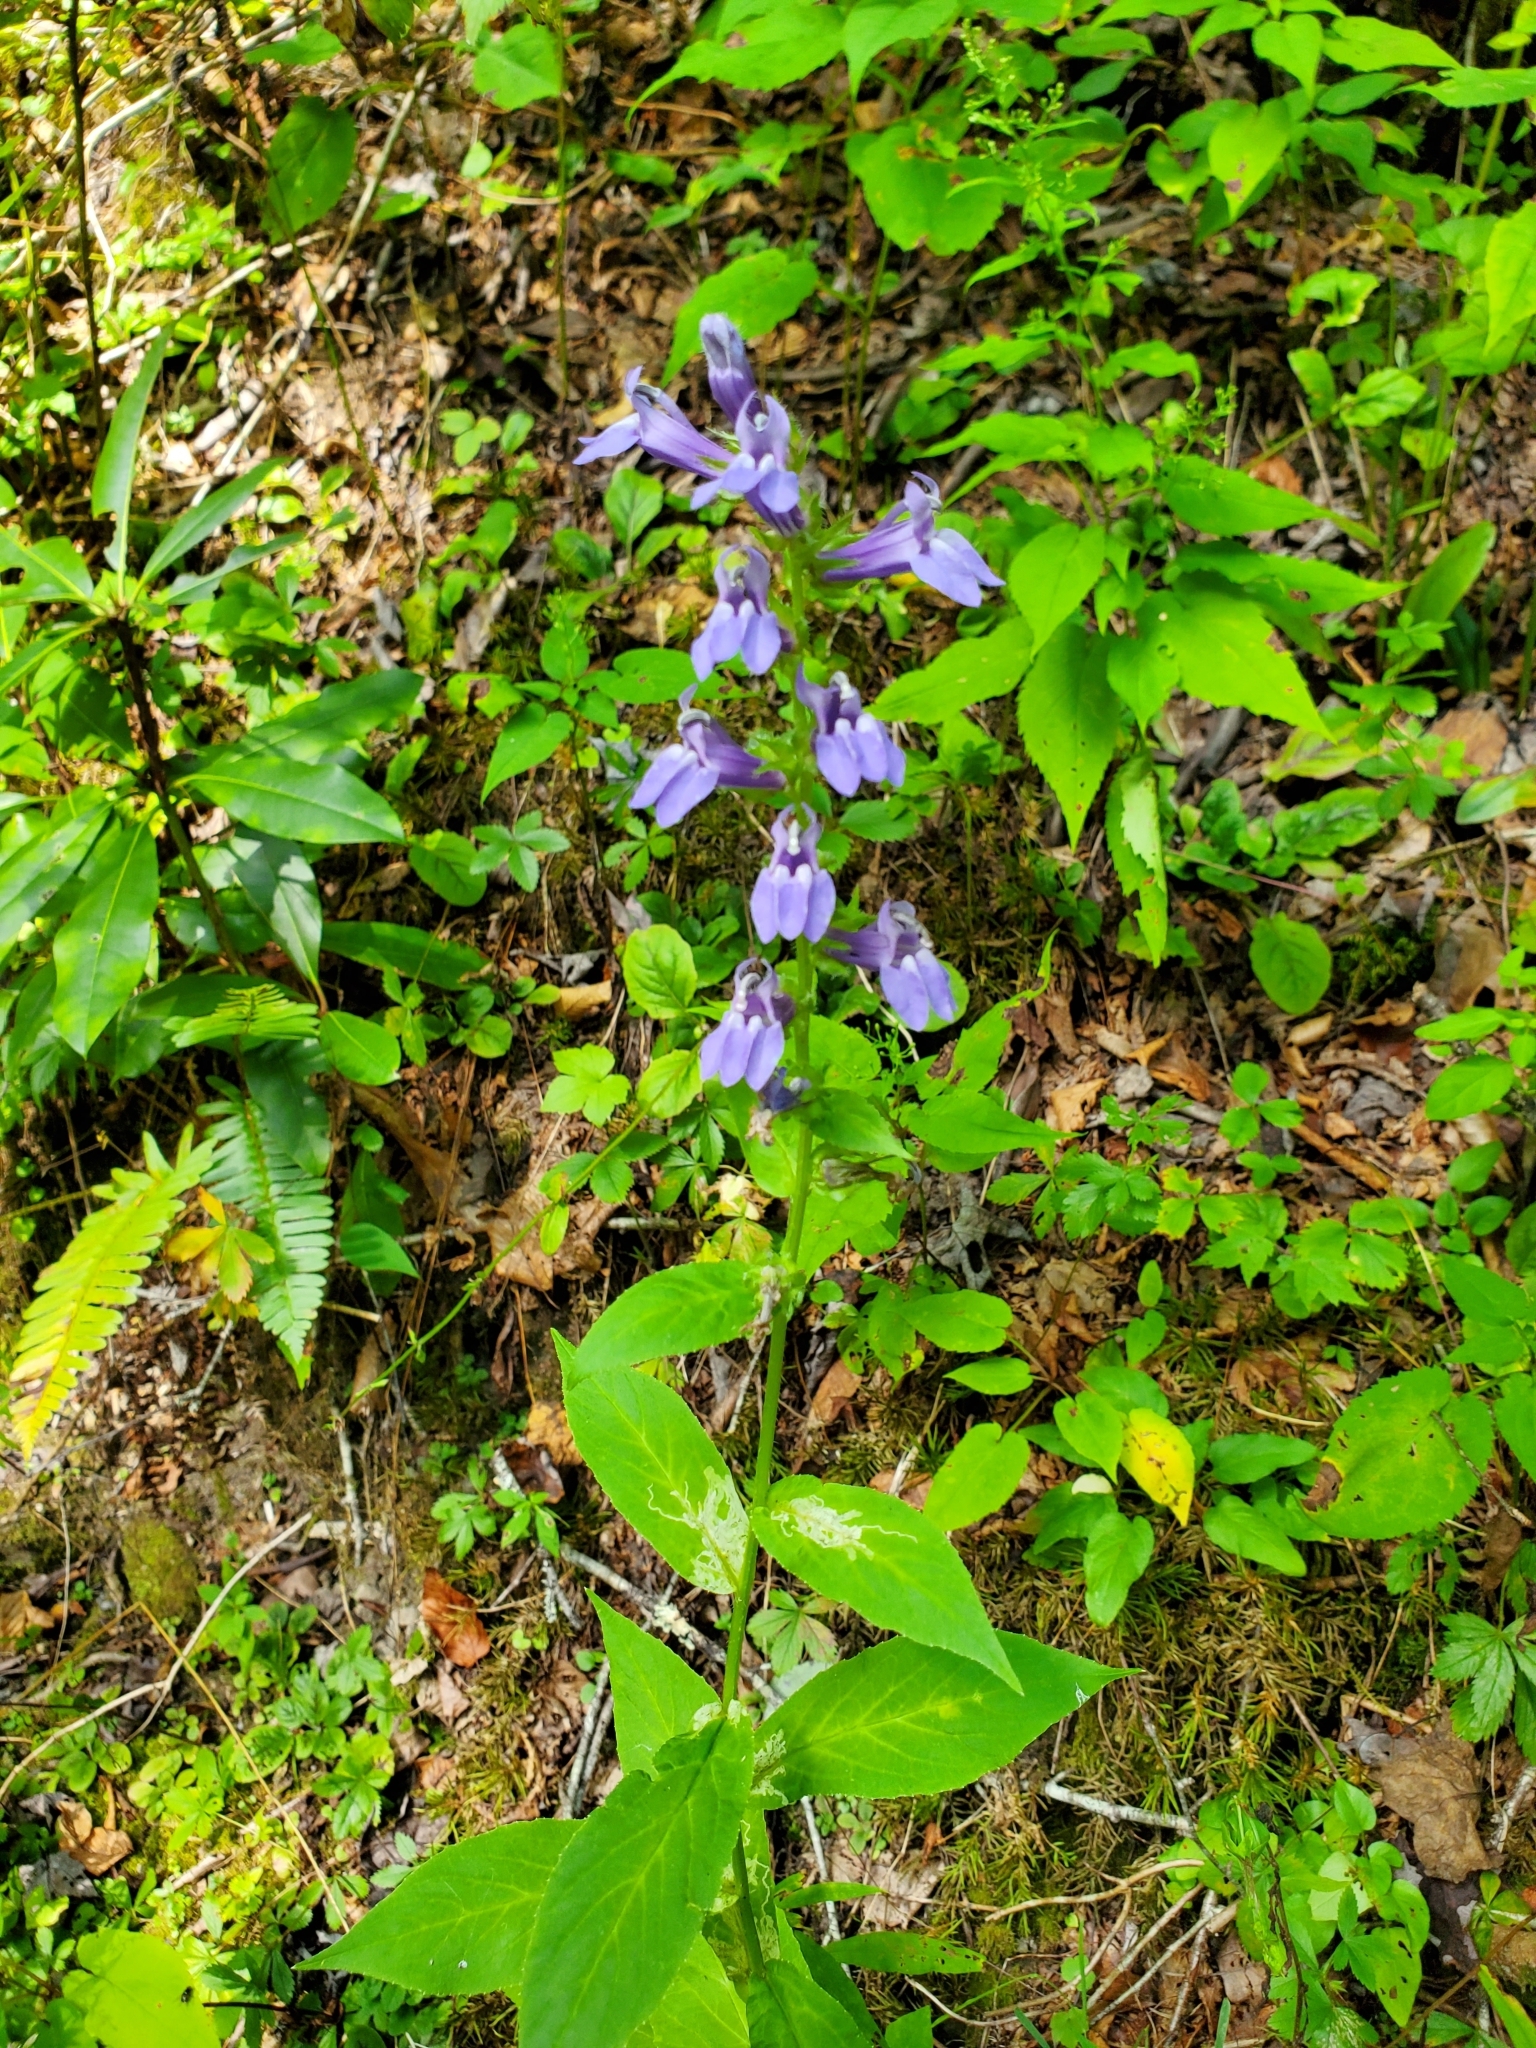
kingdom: Plantae
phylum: Tracheophyta
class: Magnoliopsida
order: Asterales
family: Campanulaceae
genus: Lobelia
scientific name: Lobelia siphilitica
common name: Great lobelia
